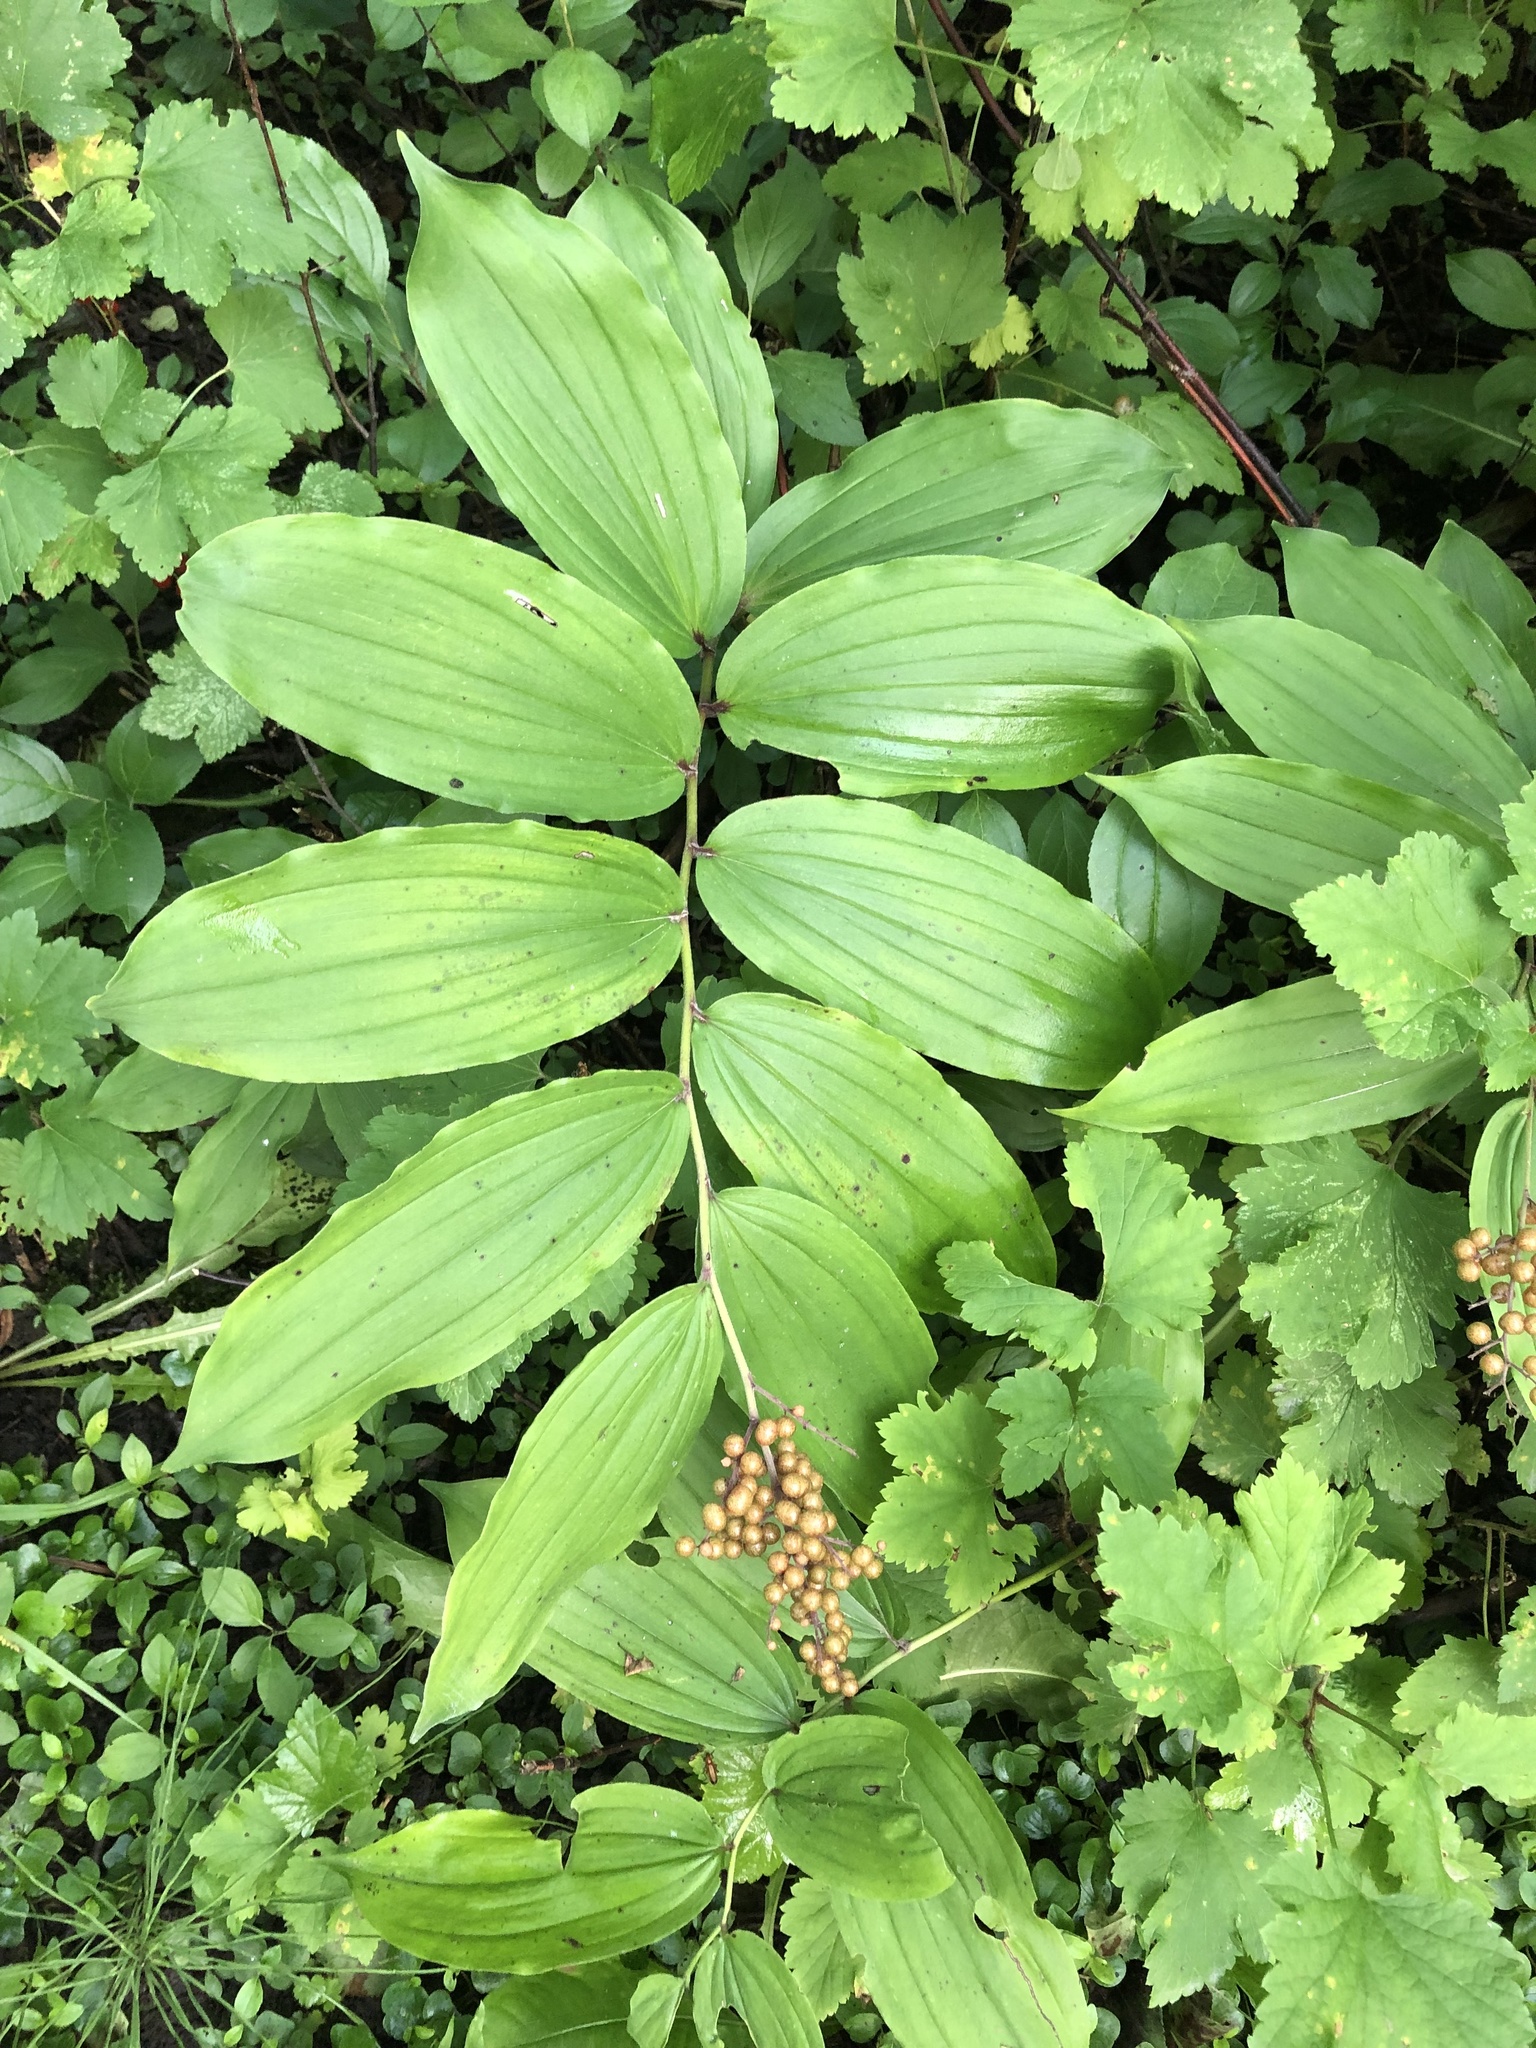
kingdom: Plantae
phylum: Tracheophyta
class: Liliopsida
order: Asparagales
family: Asparagaceae
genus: Maianthemum
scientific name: Maianthemum racemosum
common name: False spikenard
